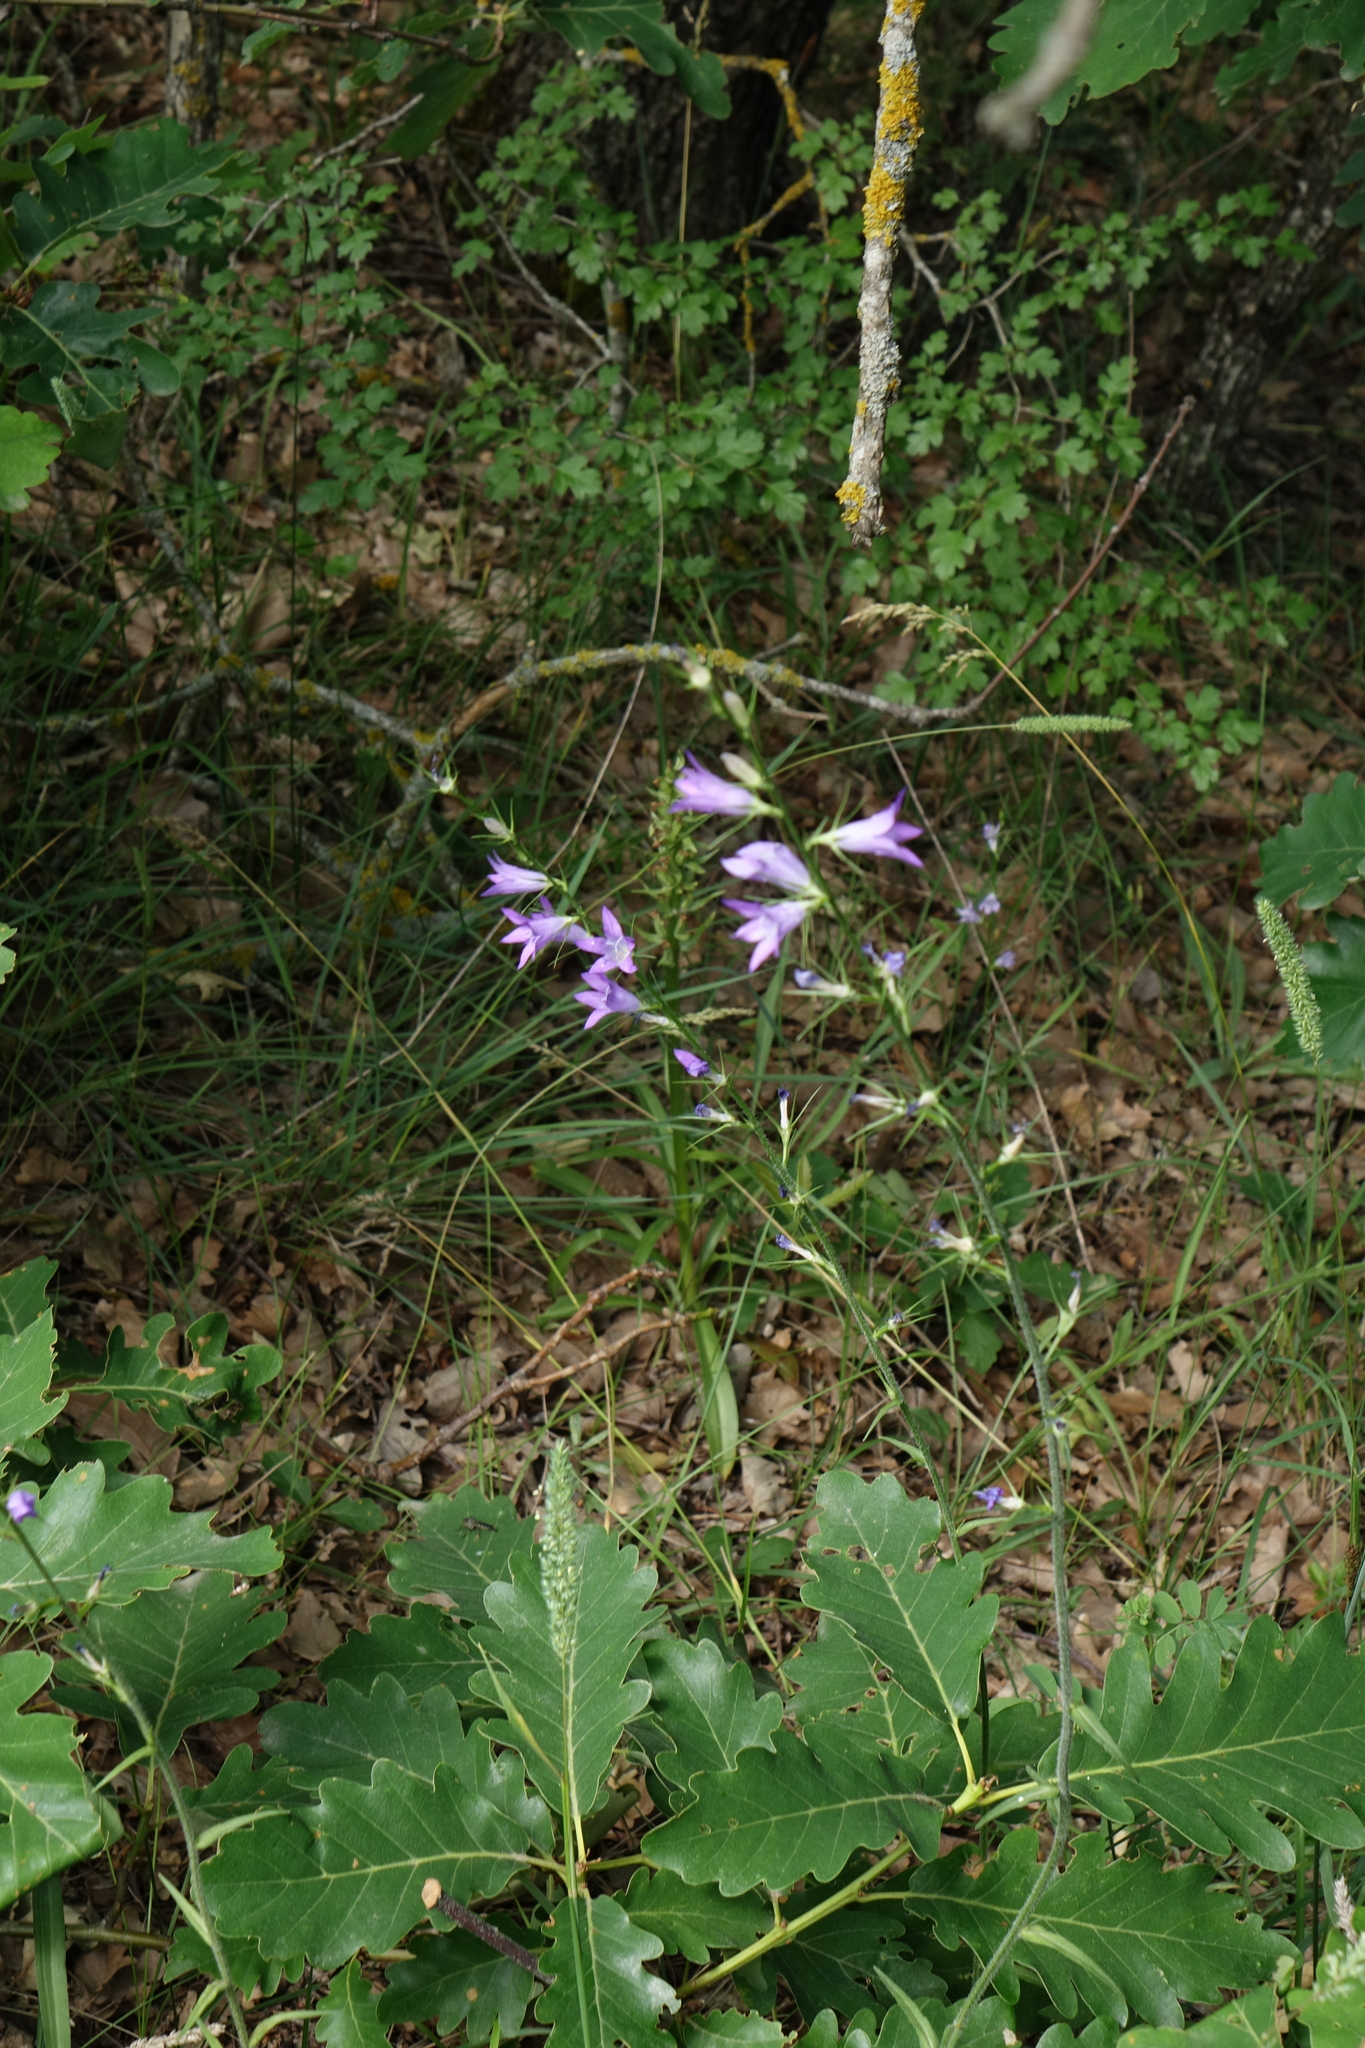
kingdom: Plantae
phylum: Tracheophyta
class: Magnoliopsida
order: Asterales
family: Campanulaceae
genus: Campanula
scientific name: Campanula rapunculus
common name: Rampion bellflower
